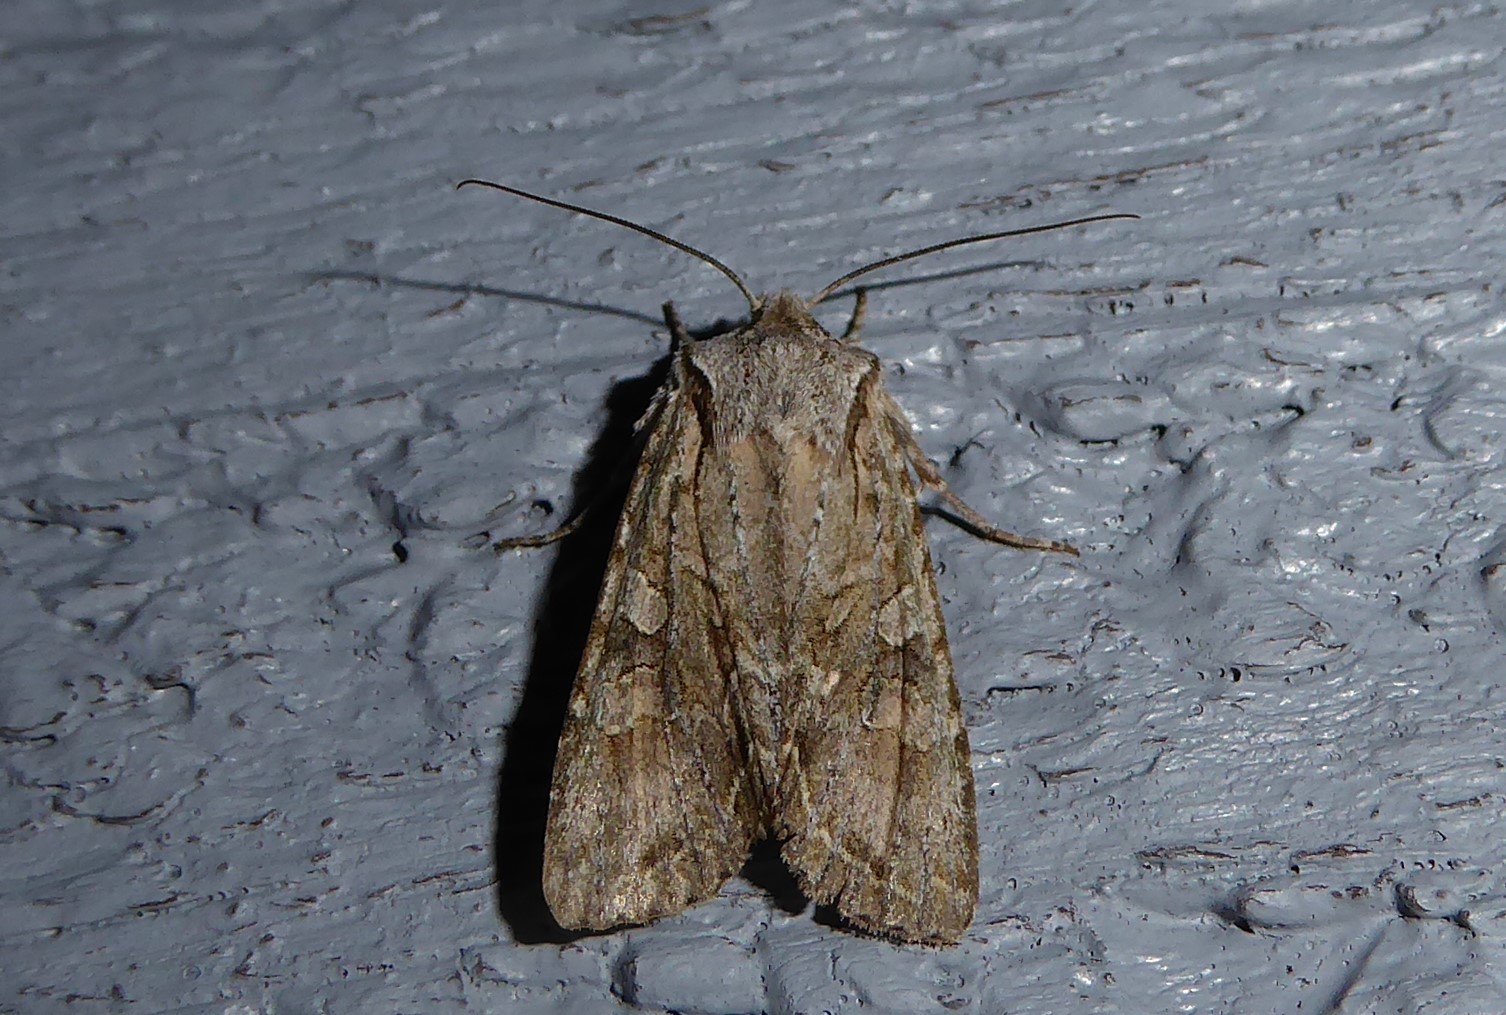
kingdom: Animalia
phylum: Arthropoda
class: Insecta
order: Lepidoptera
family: Noctuidae
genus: Ichneutica
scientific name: Ichneutica mutans
